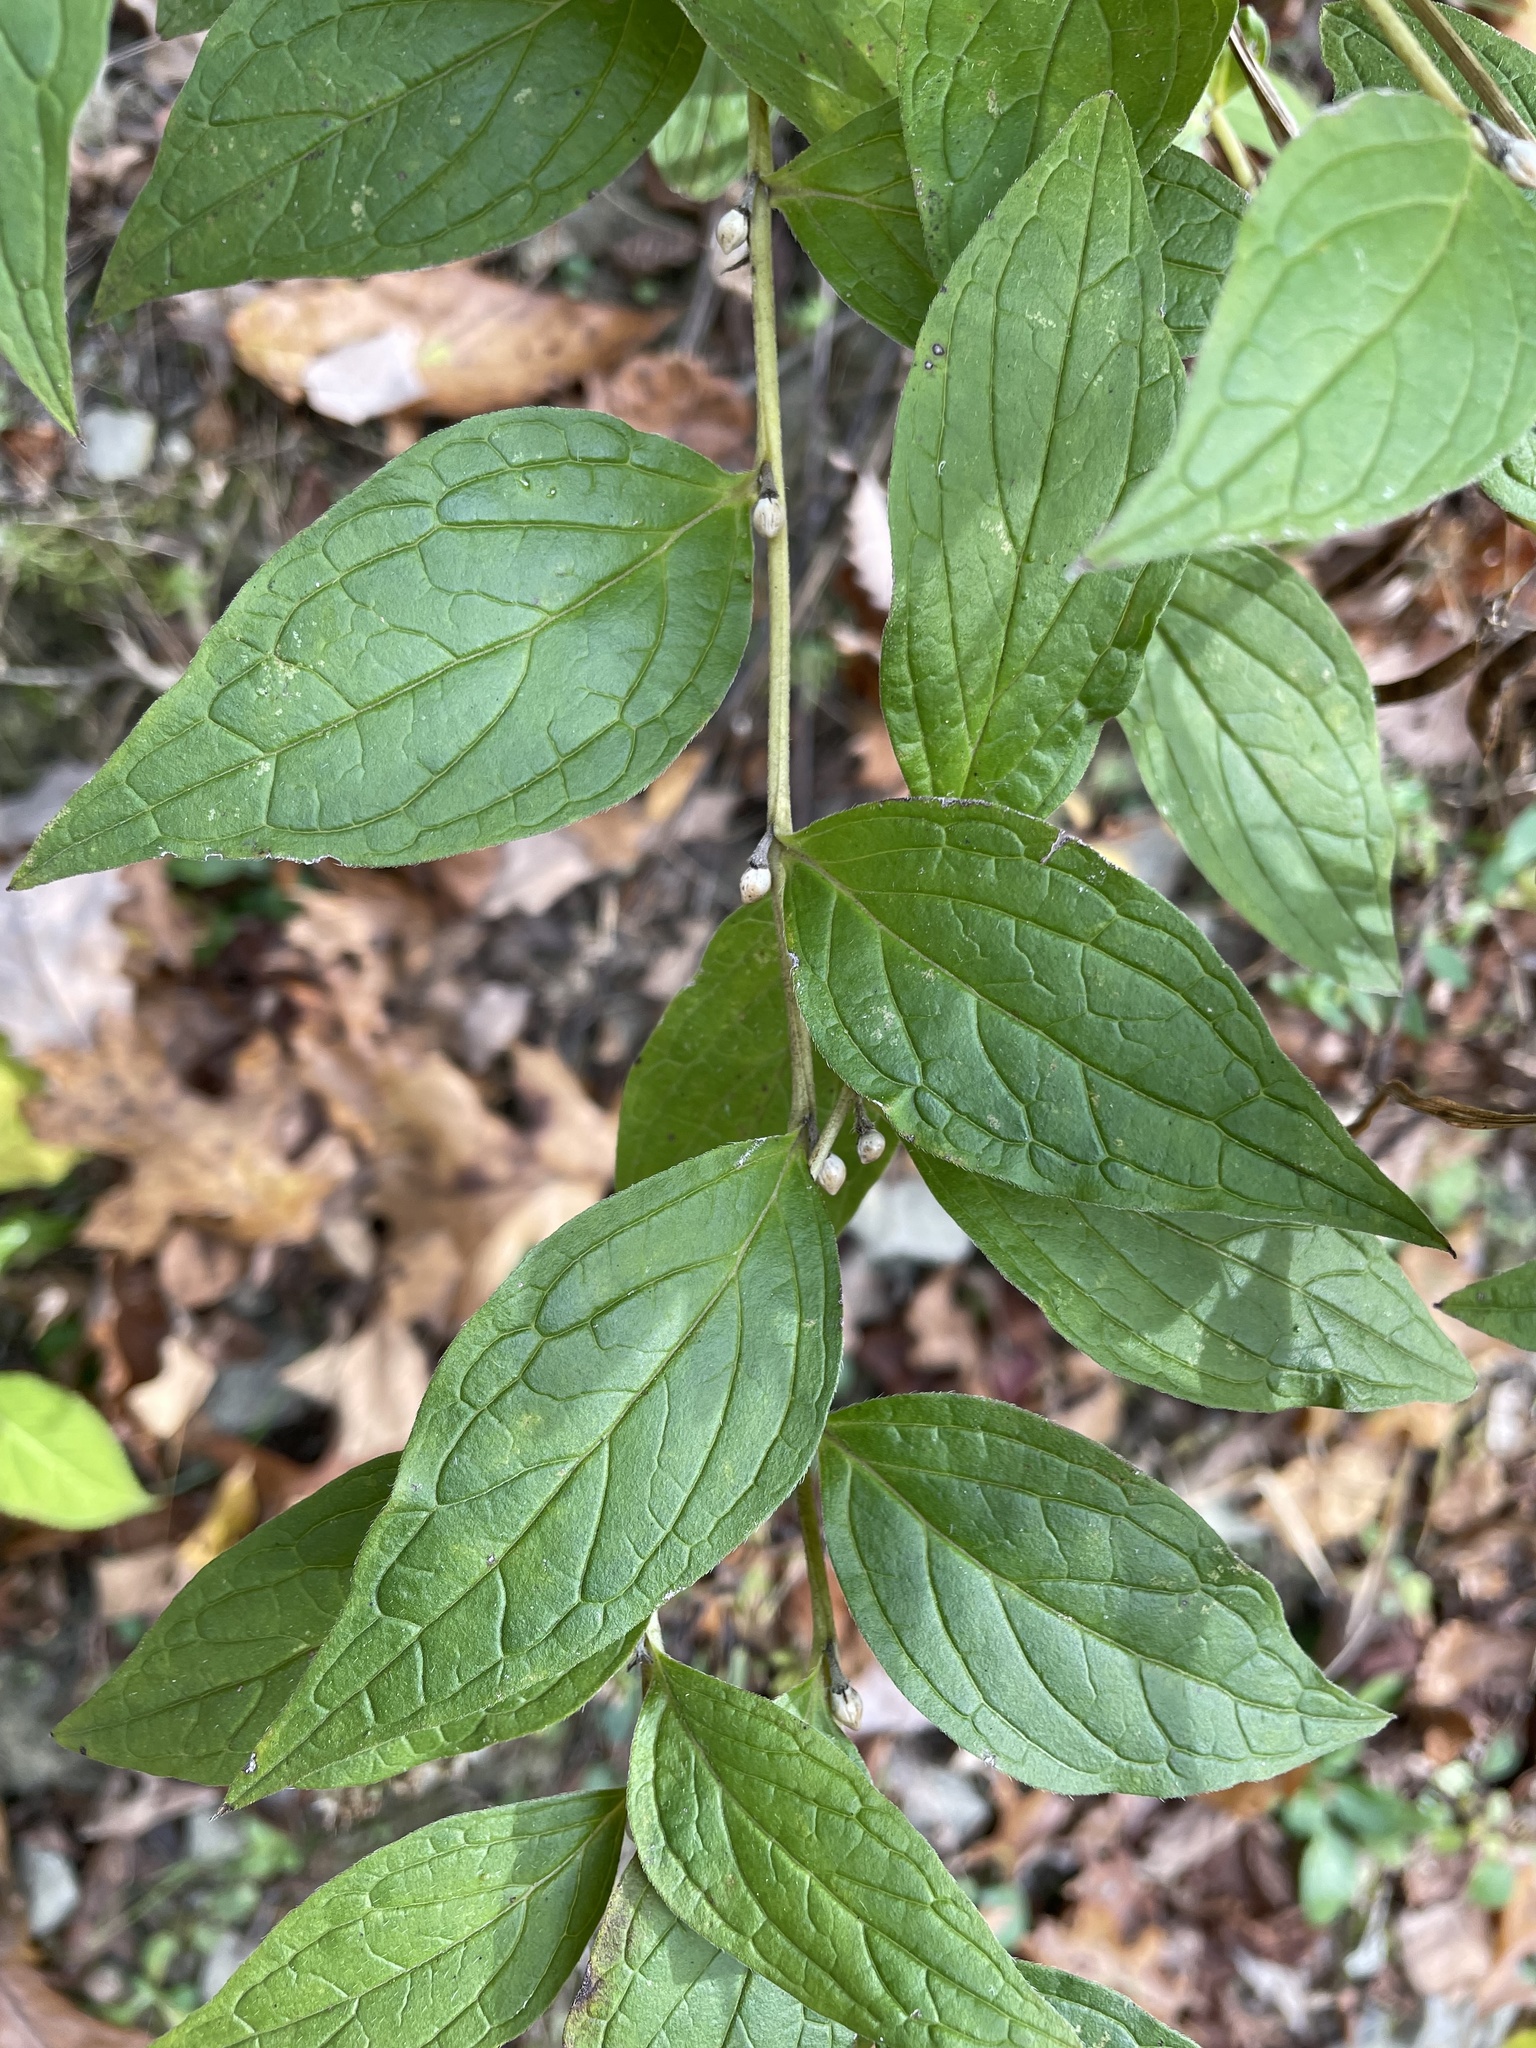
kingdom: Plantae
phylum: Tracheophyta
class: Magnoliopsida
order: Boraginales
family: Boraginaceae
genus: Lithospermum
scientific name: Lithospermum latifolium
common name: American gromwell
